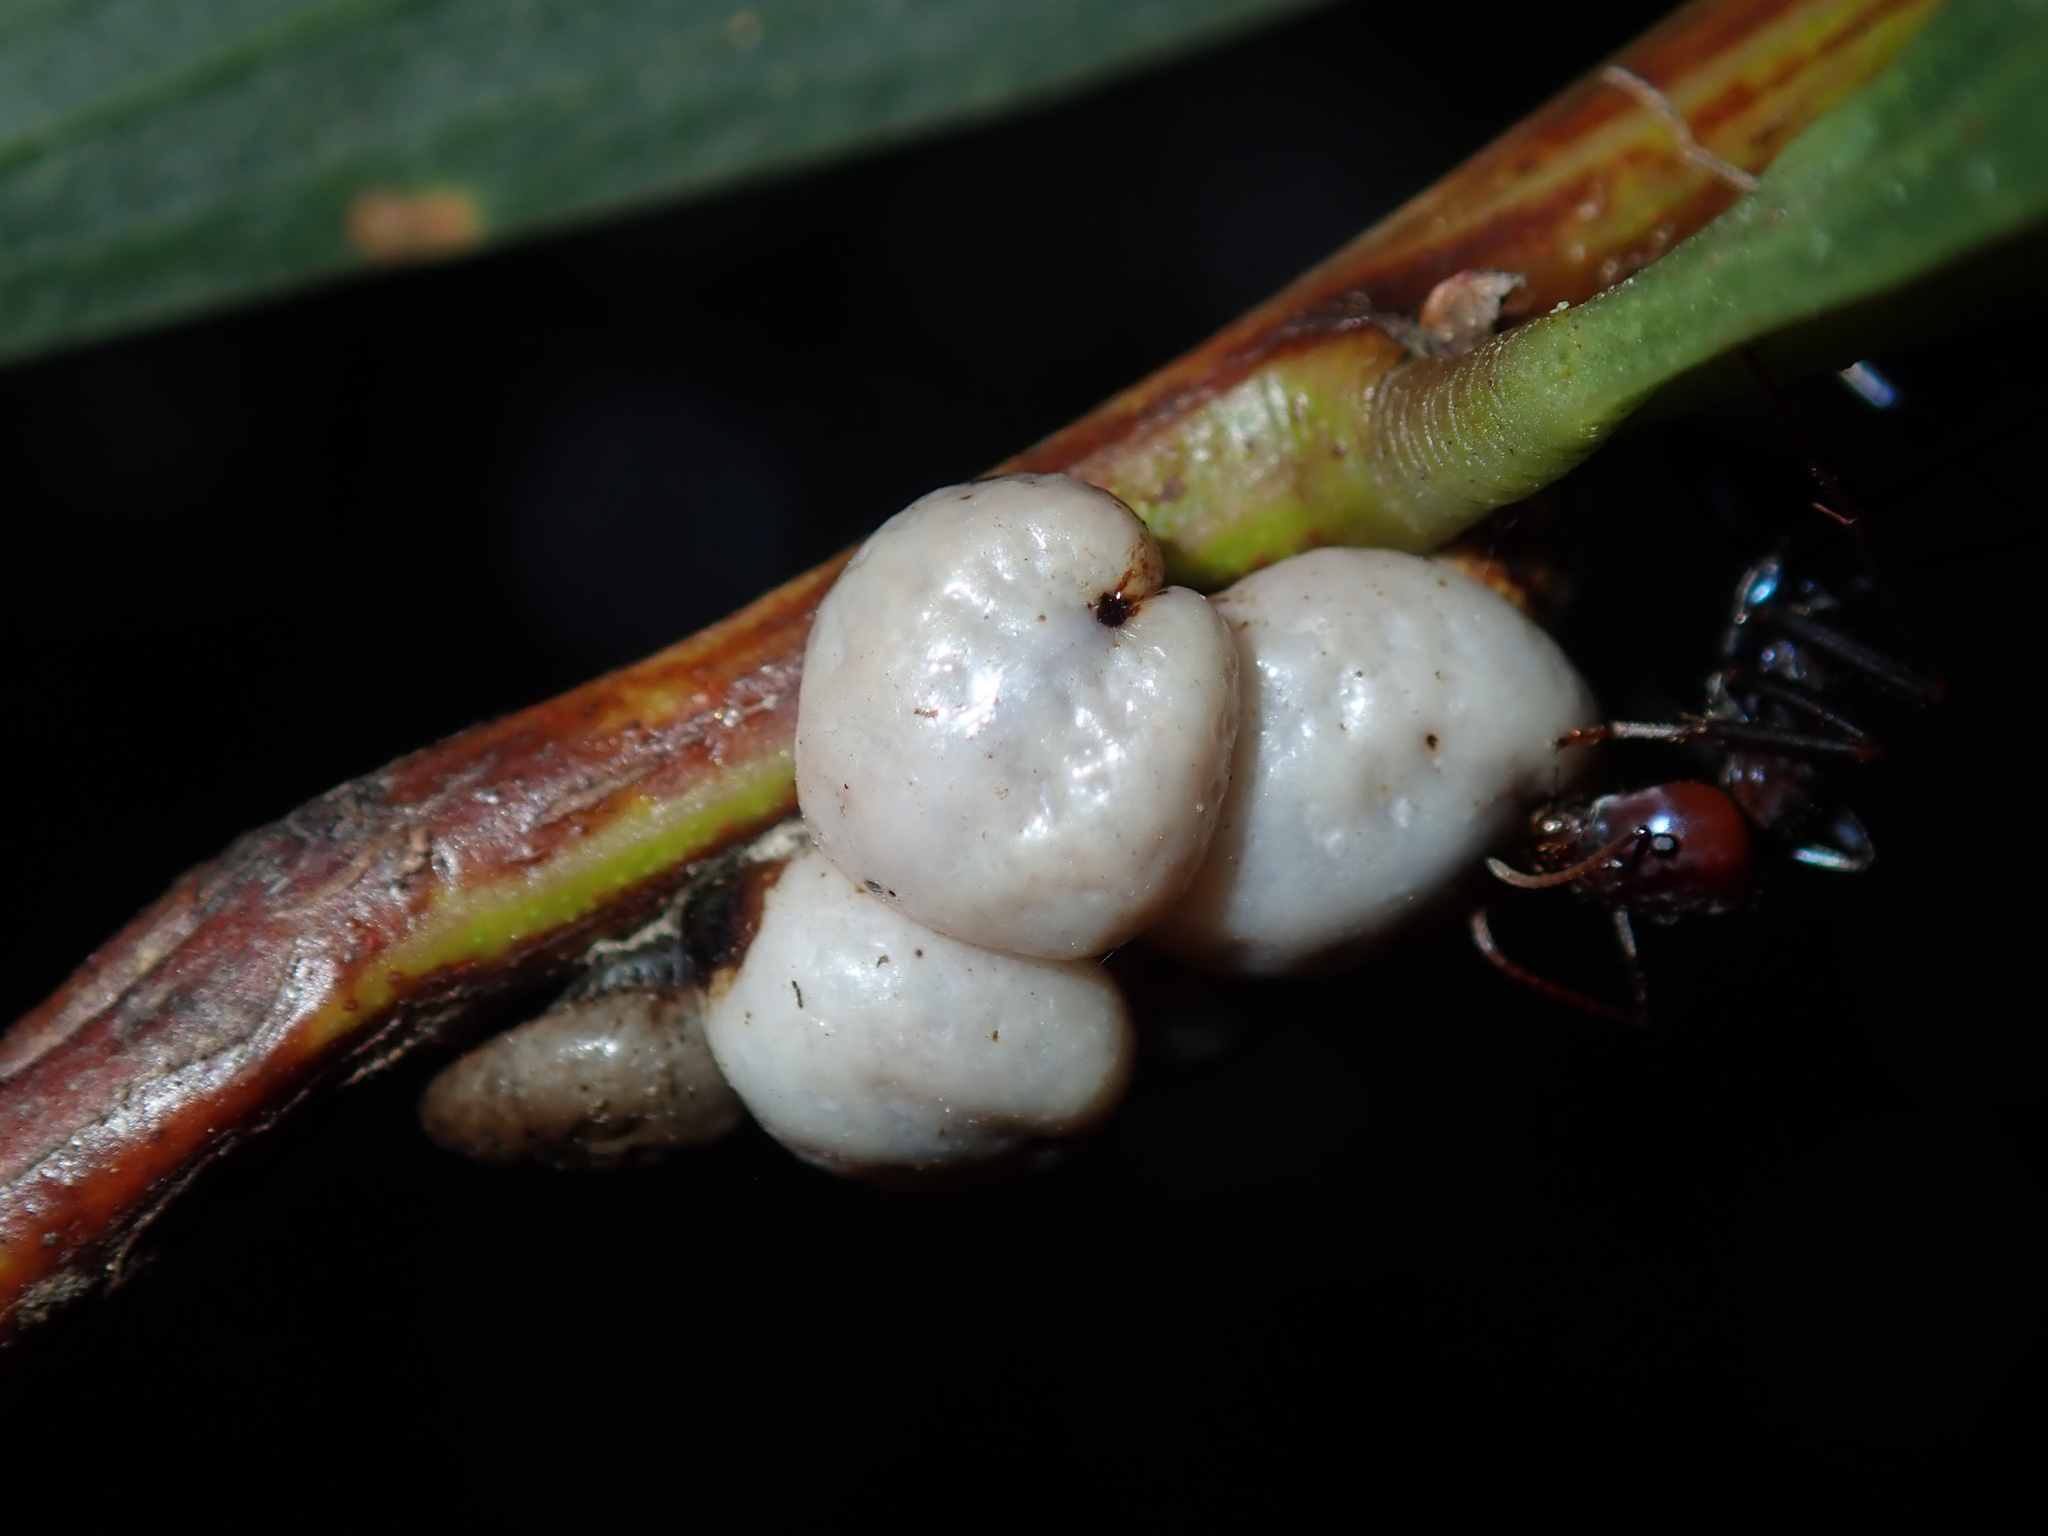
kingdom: Animalia
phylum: Arthropoda
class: Insecta
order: Hemiptera
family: Coccidae
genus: Cryptes
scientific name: Cryptes baccatus
